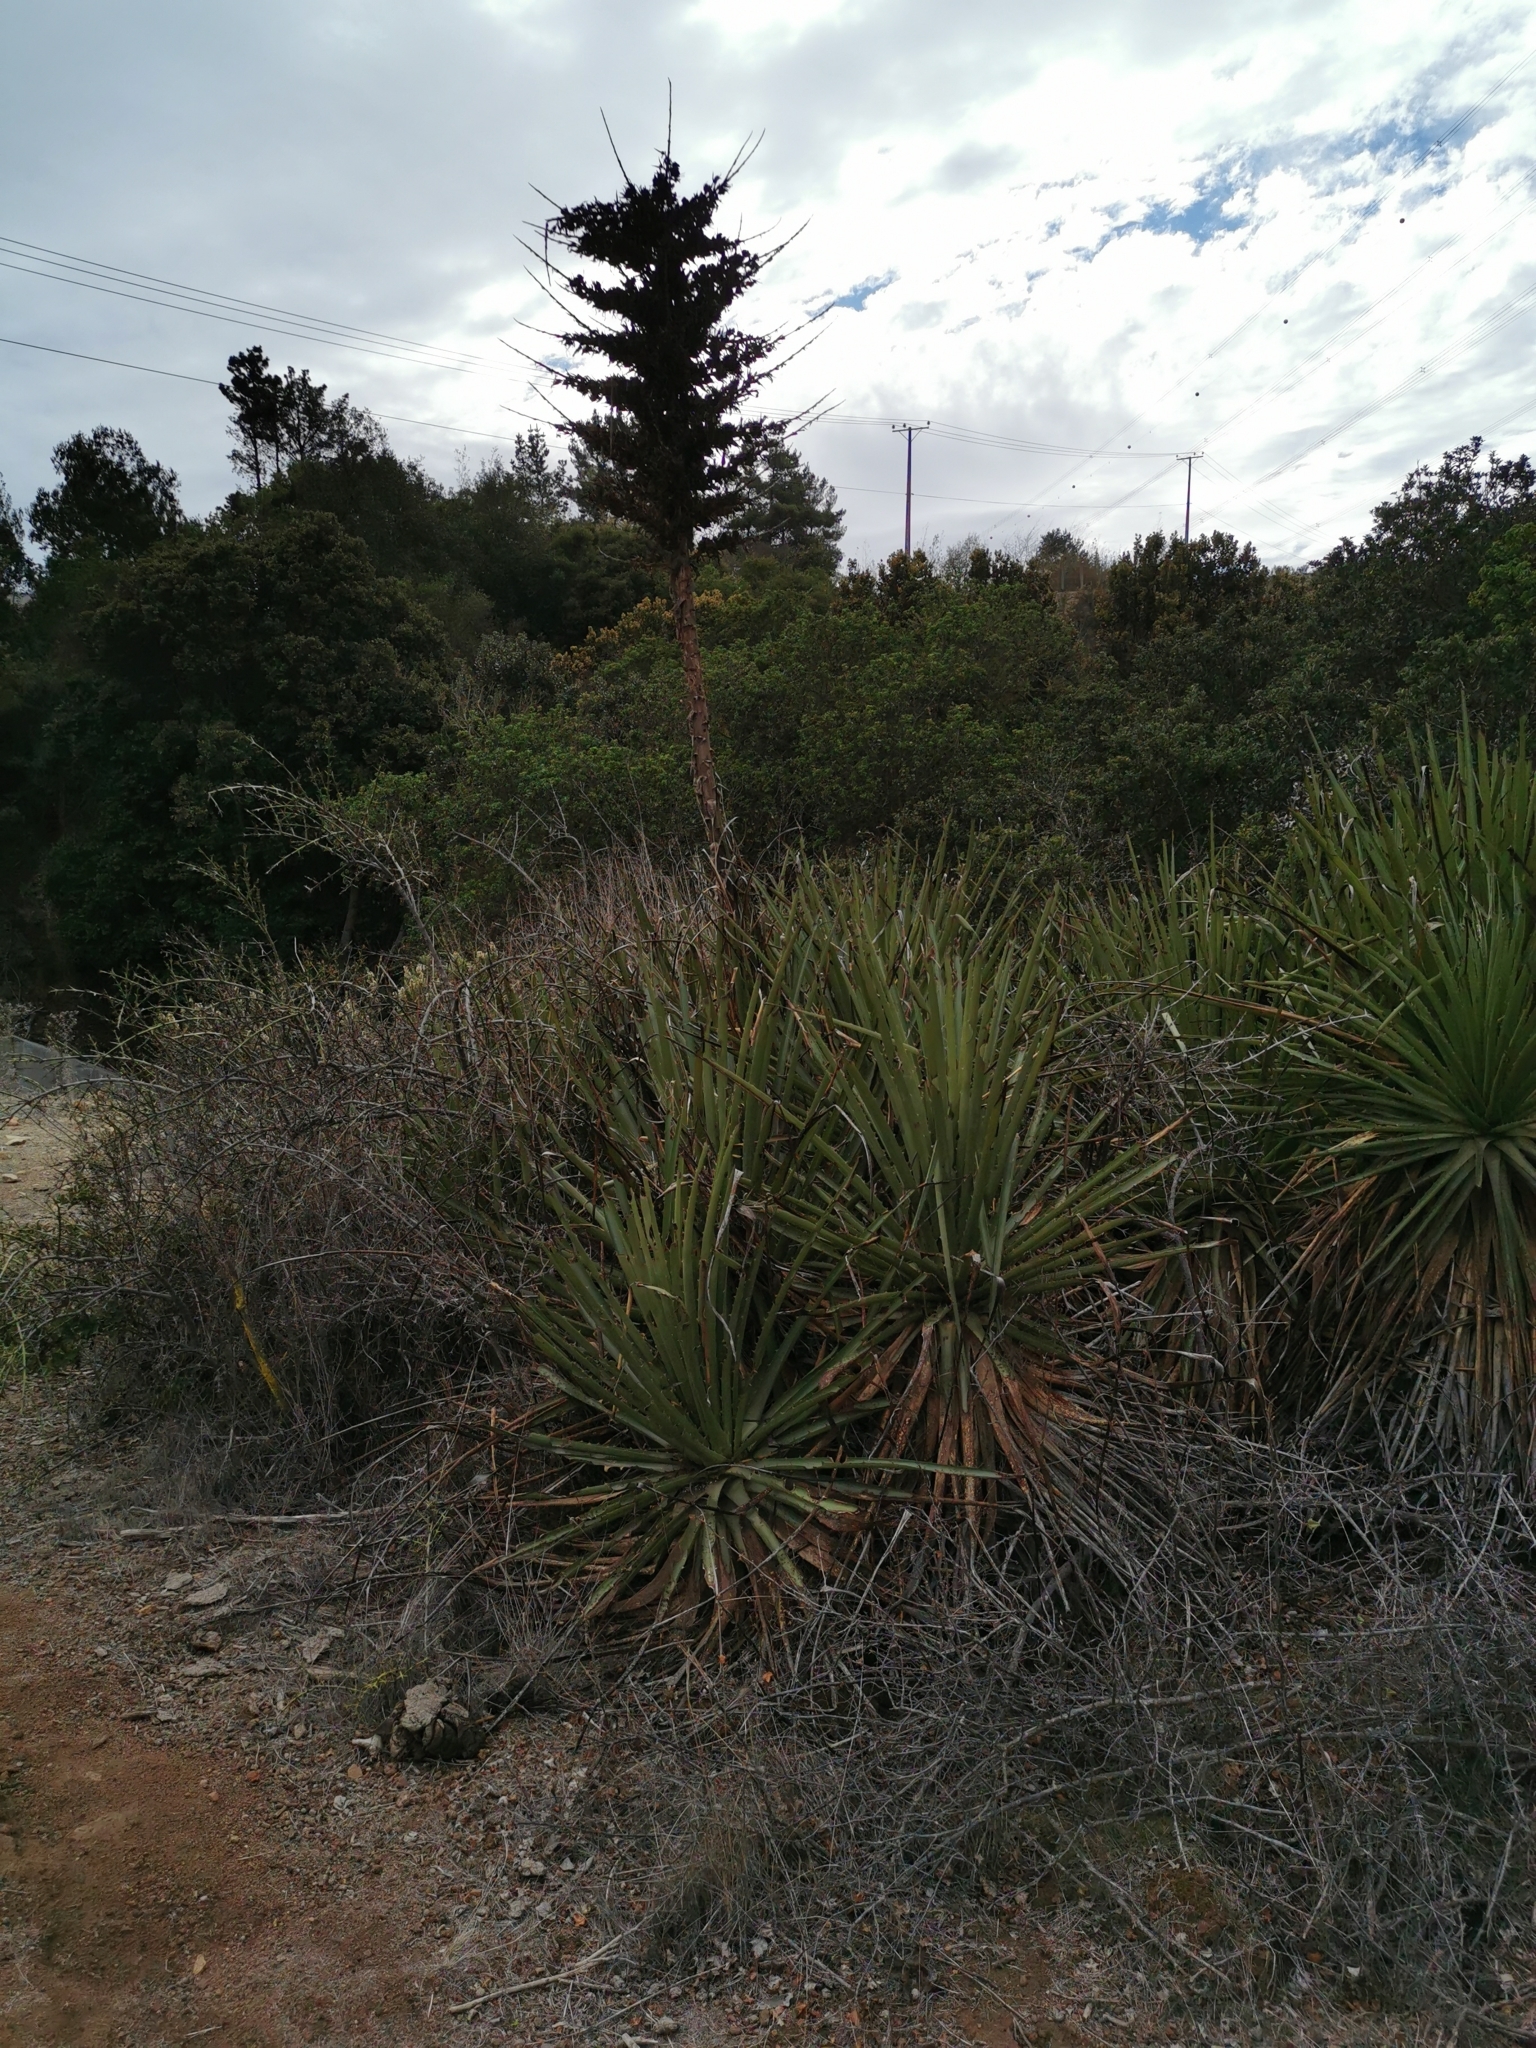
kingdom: Plantae
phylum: Tracheophyta
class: Liliopsida
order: Poales
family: Bromeliaceae
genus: Puya
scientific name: Puya chilensis
